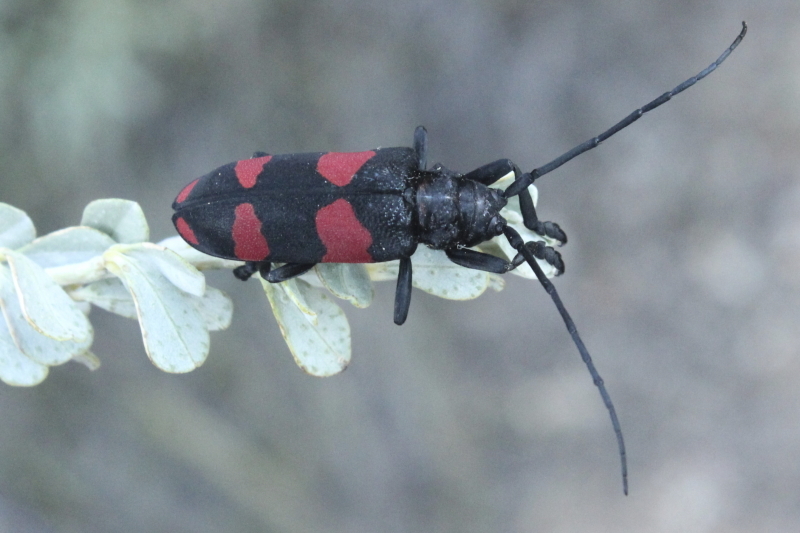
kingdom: Animalia
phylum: Arthropoda
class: Insecta
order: Coleoptera
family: Cerambycidae
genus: Ceroplesis
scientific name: Ceroplesis aethiops
